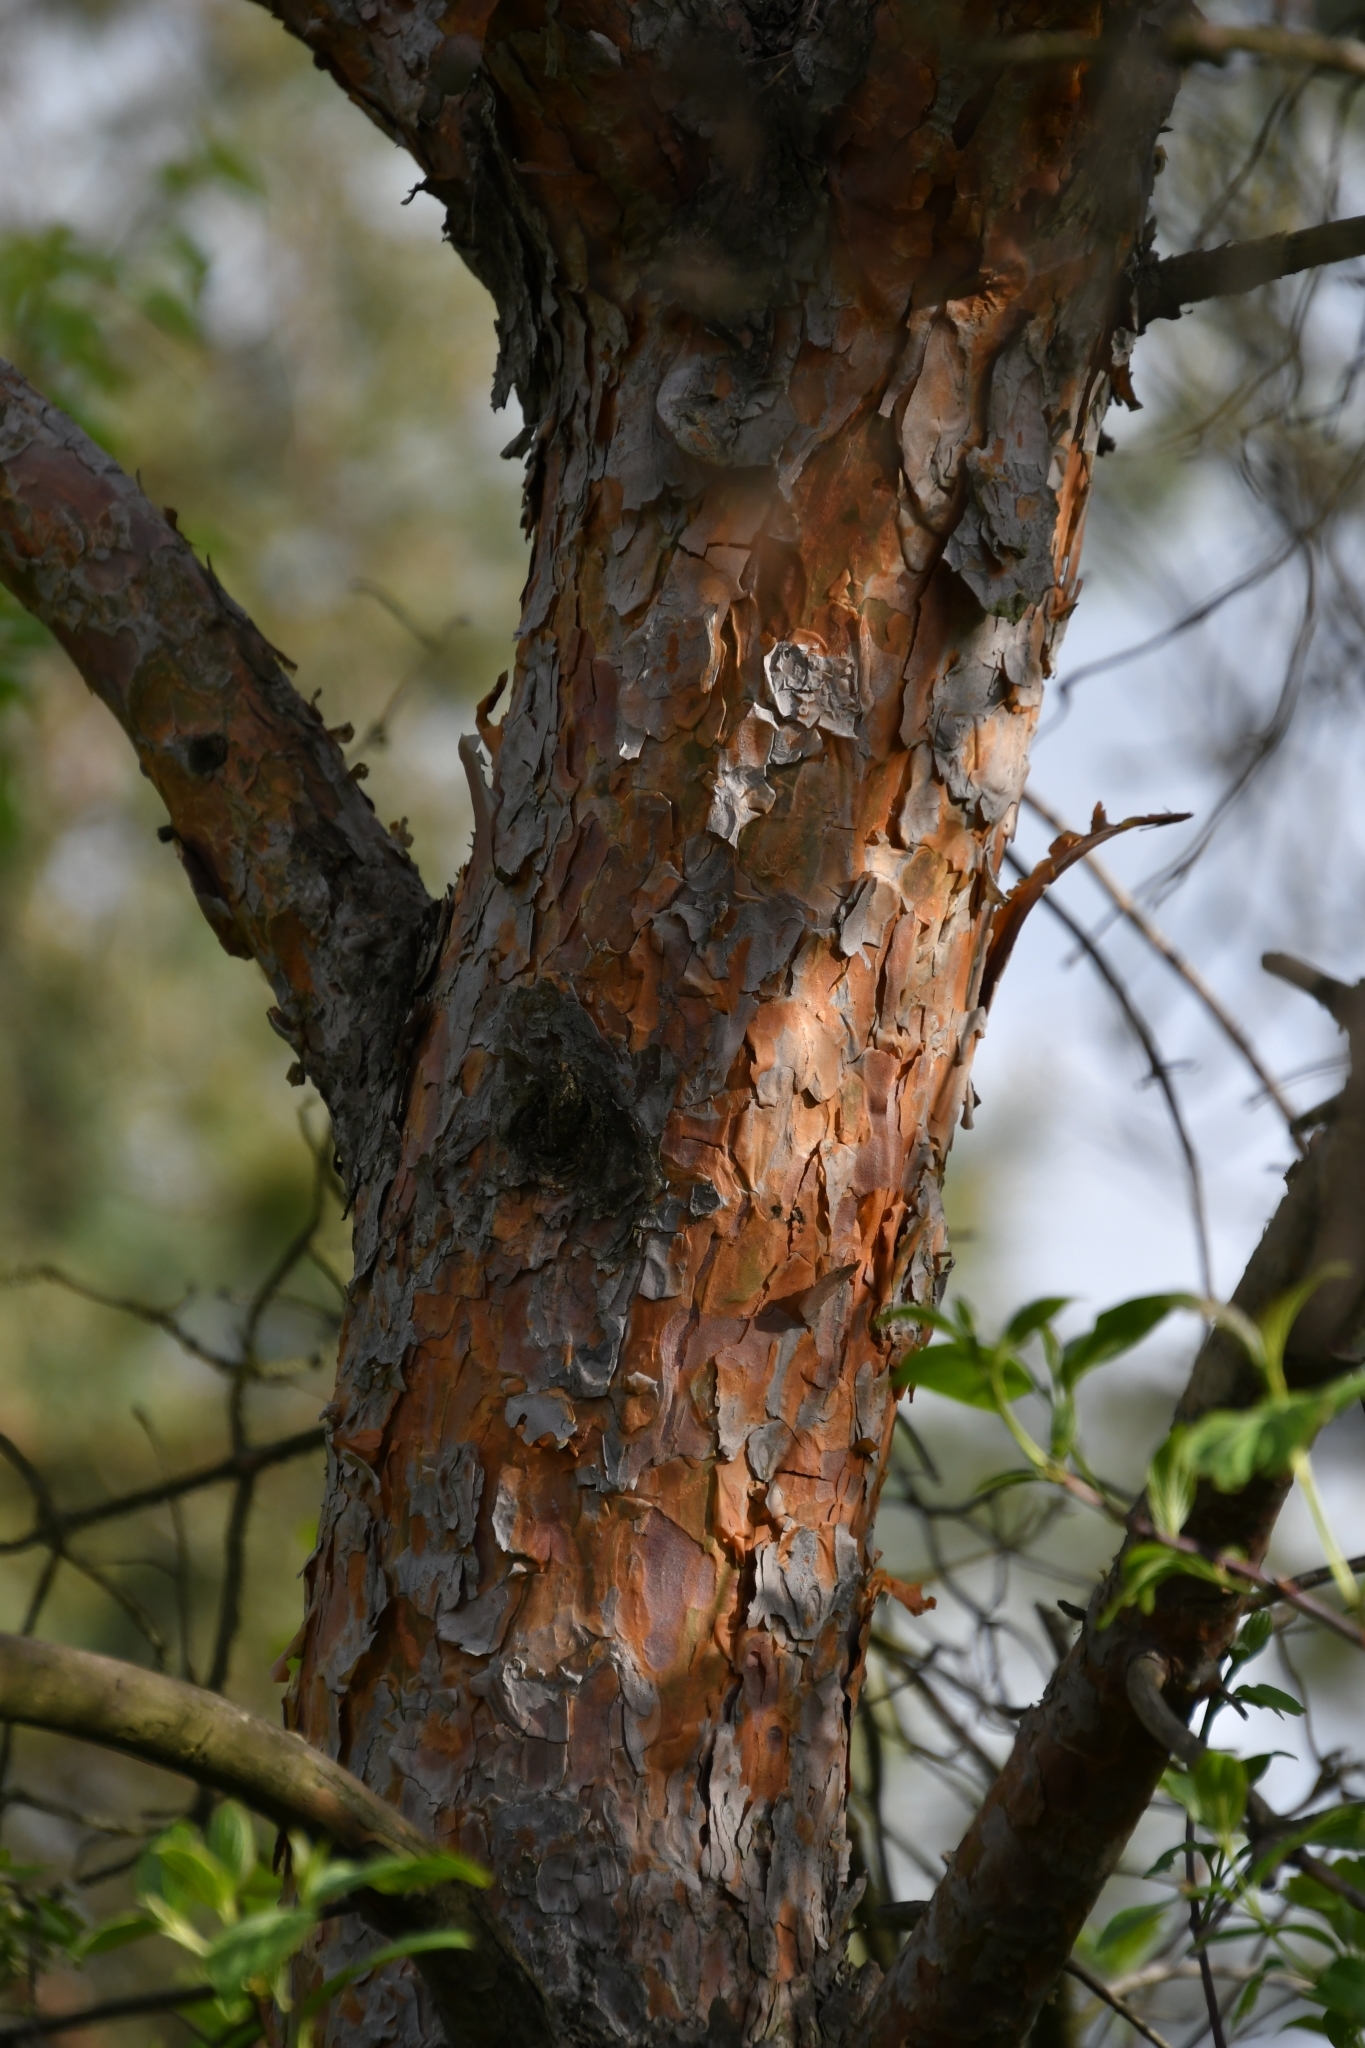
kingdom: Plantae
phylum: Tracheophyta
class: Pinopsida
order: Pinales
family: Pinaceae
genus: Pinus
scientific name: Pinus sylvestris
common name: Scots pine
